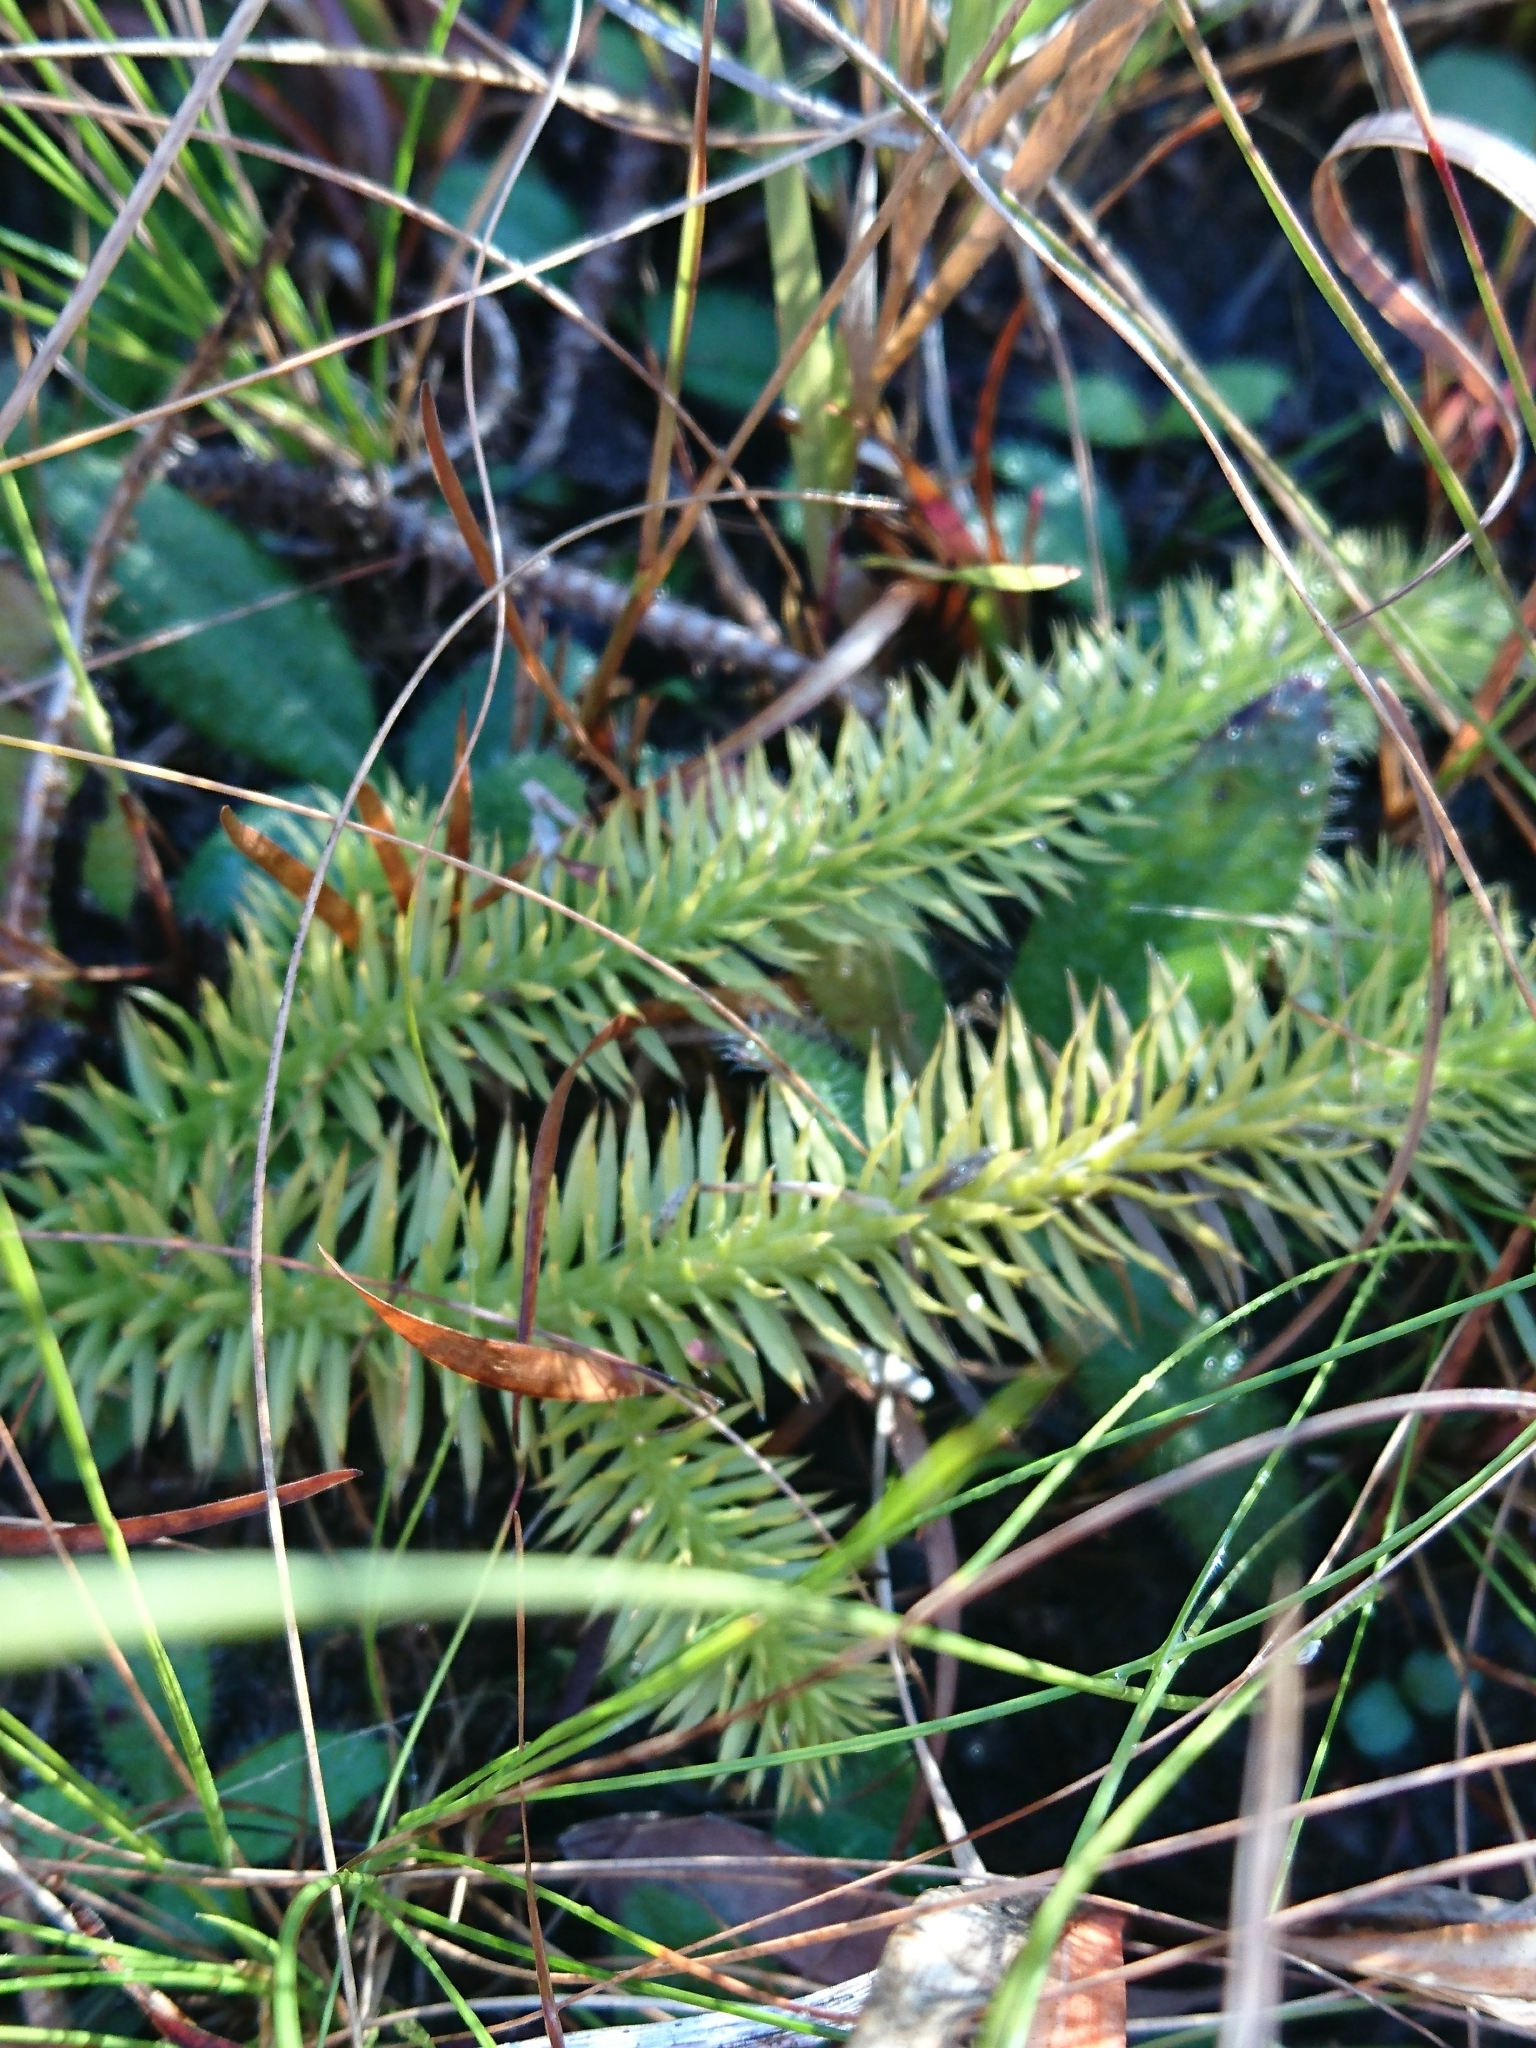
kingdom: Plantae
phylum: Tracheophyta
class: Lycopodiopsida
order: Lycopodiales
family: Lycopodiaceae
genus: Lycopodiella
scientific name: Lycopodiella alopecuroides
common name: Foxtail clubmoss
